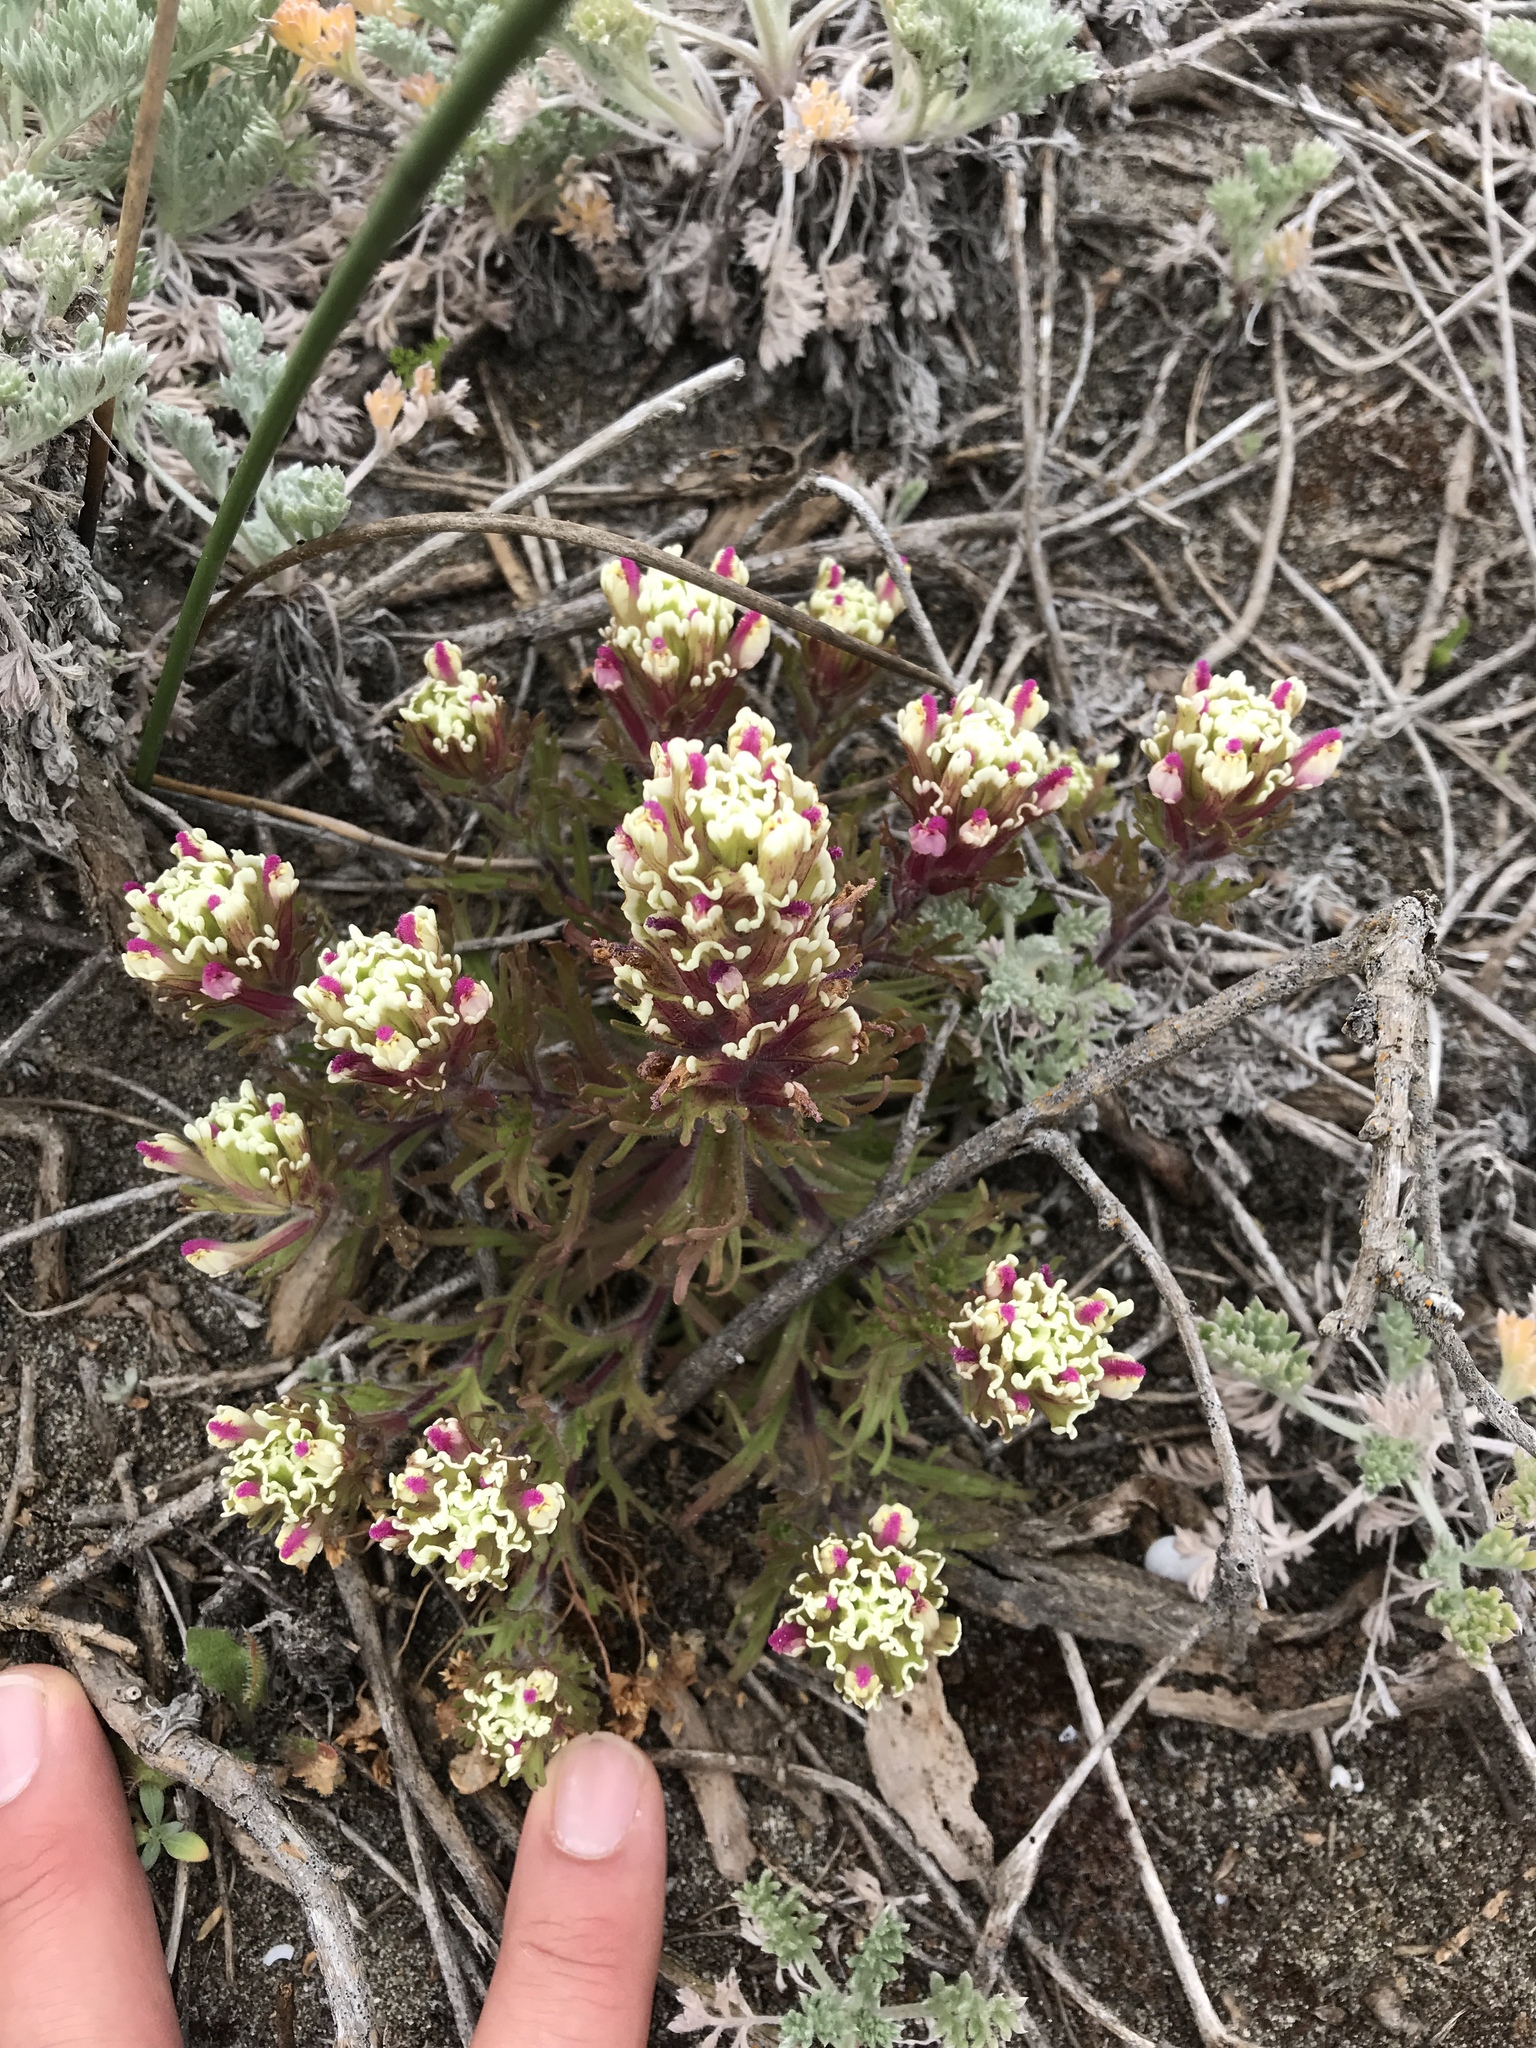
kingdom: Plantae
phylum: Tracheophyta
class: Magnoliopsida
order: Lamiales
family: Orobanchaceae
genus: Castilleja
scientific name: Castilleja exserta
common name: Purple owl-clover
